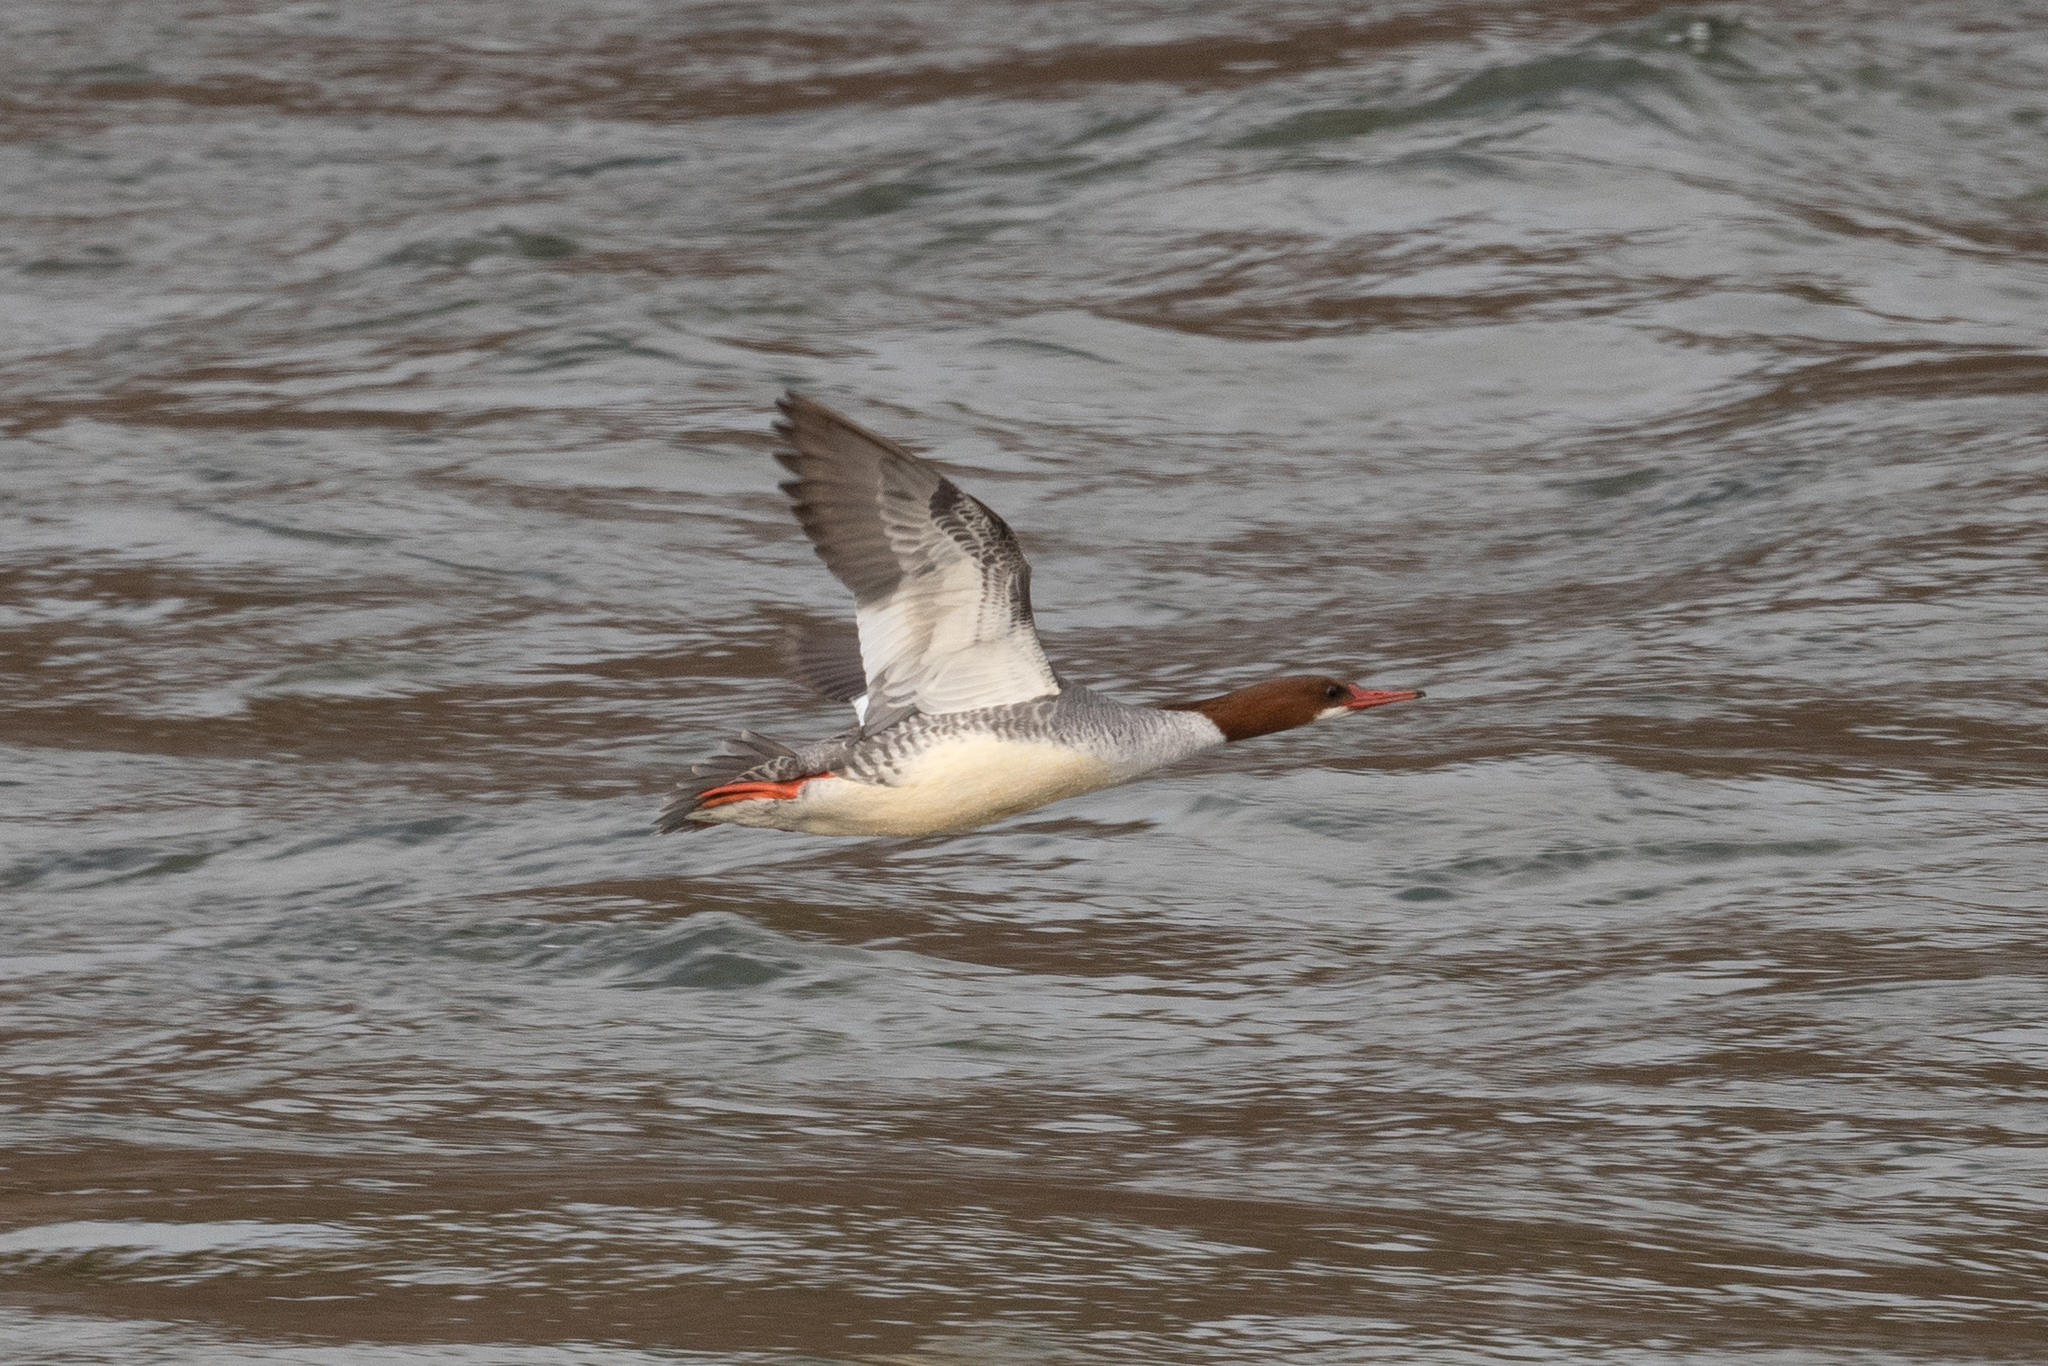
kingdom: Animalia
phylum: Chordata
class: Aves
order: Anseriformes
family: Anatidae
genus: Mergus
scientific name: Mergus merganser
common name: Common merganser
